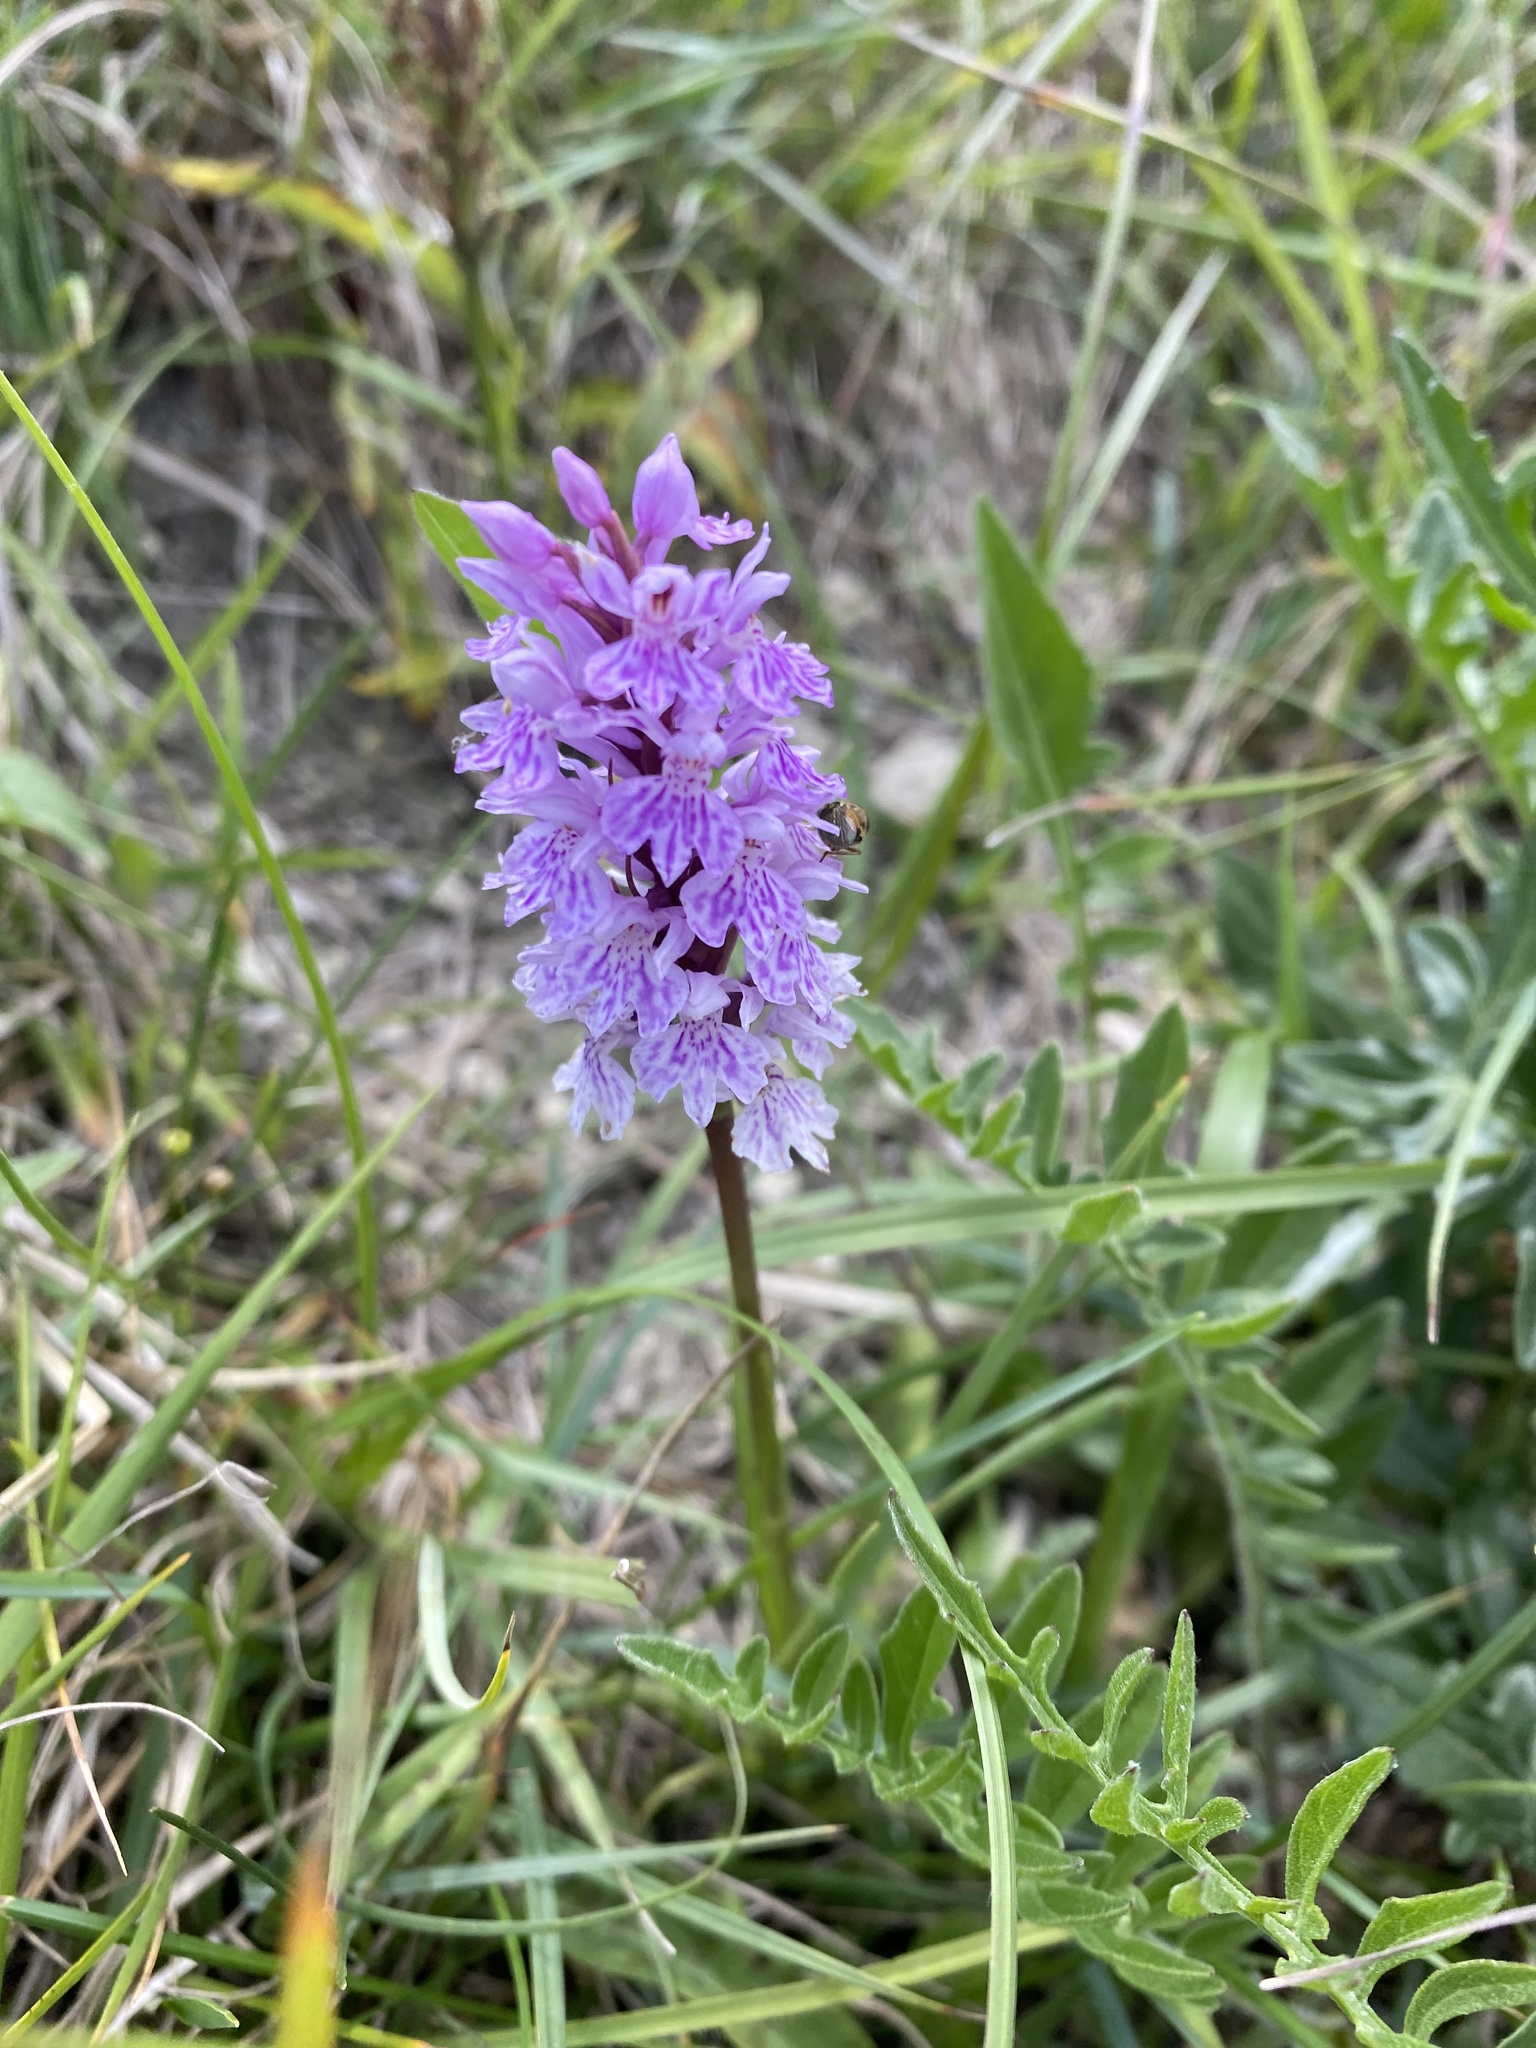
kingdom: Plantae
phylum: Tracheophyta
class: Liliopsida
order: Asparagales
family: Orchidaceae
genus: Dactylorhiza
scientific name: Dactylorhiza maculata
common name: Heath spotted-orchid
